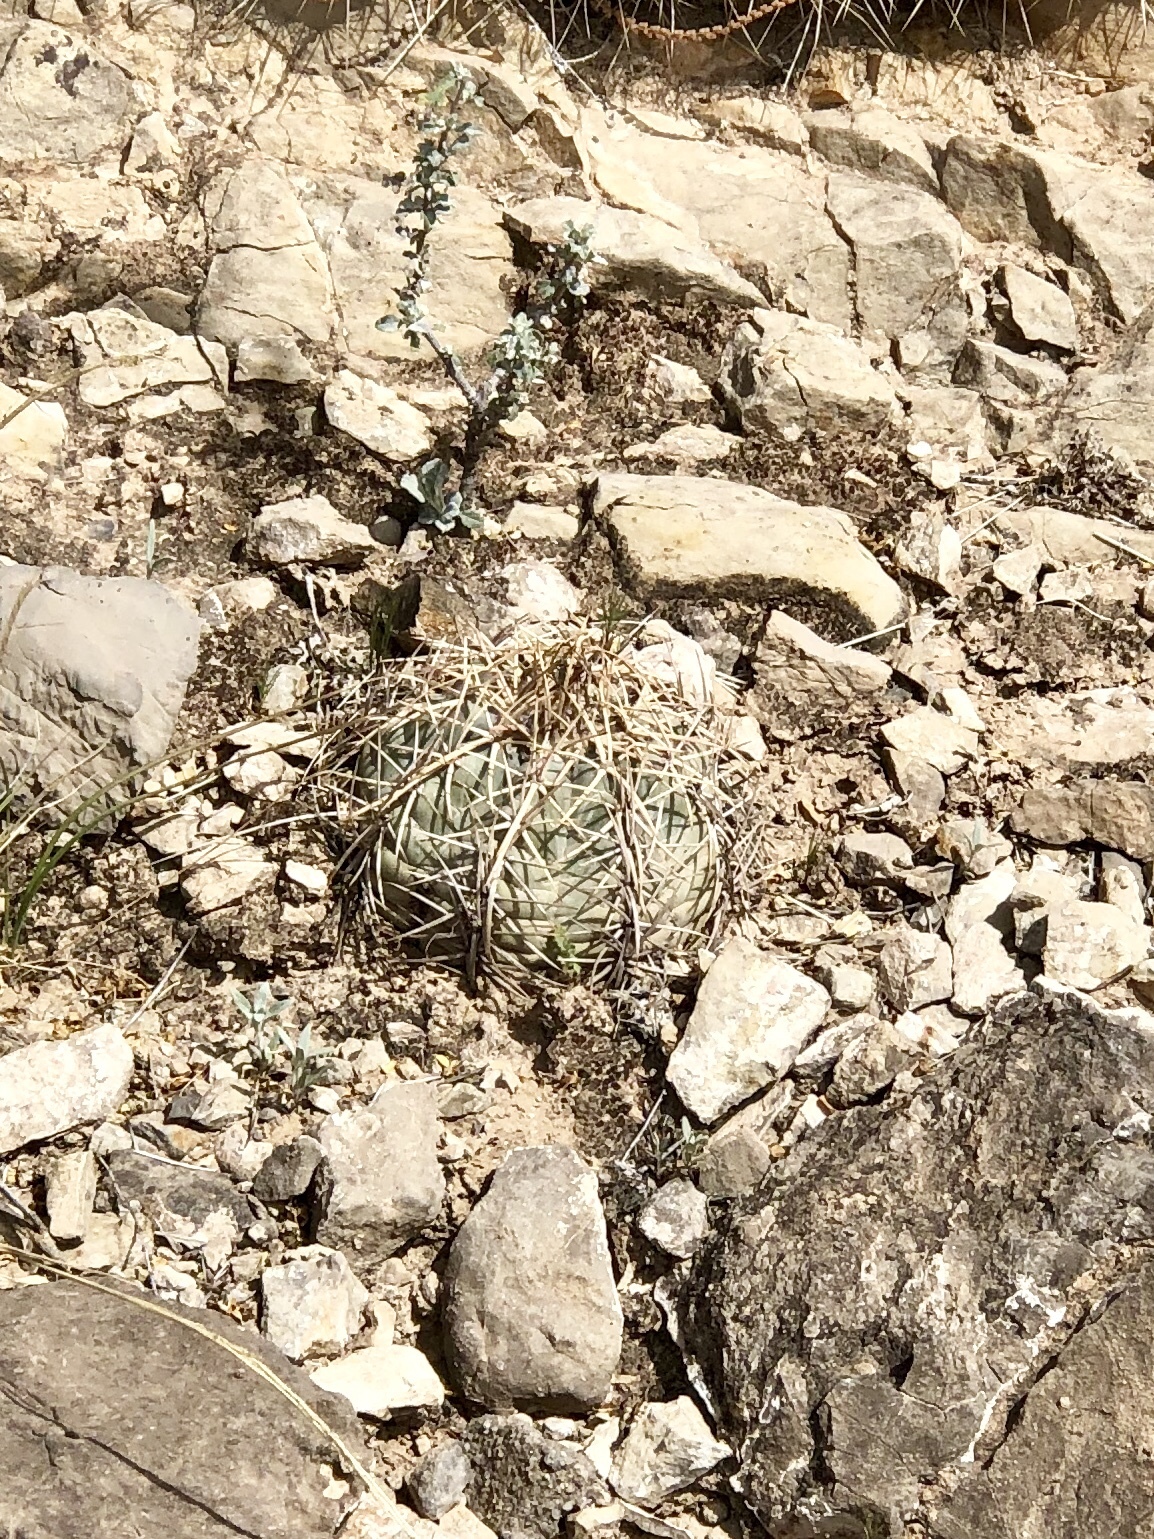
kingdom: Plantae
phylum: Tracheophyta
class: Magnoliopsida
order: Caryophyllales
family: Cactaceae
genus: Echinocactus
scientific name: Echinocactus horizonthalonius
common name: Devilshead
